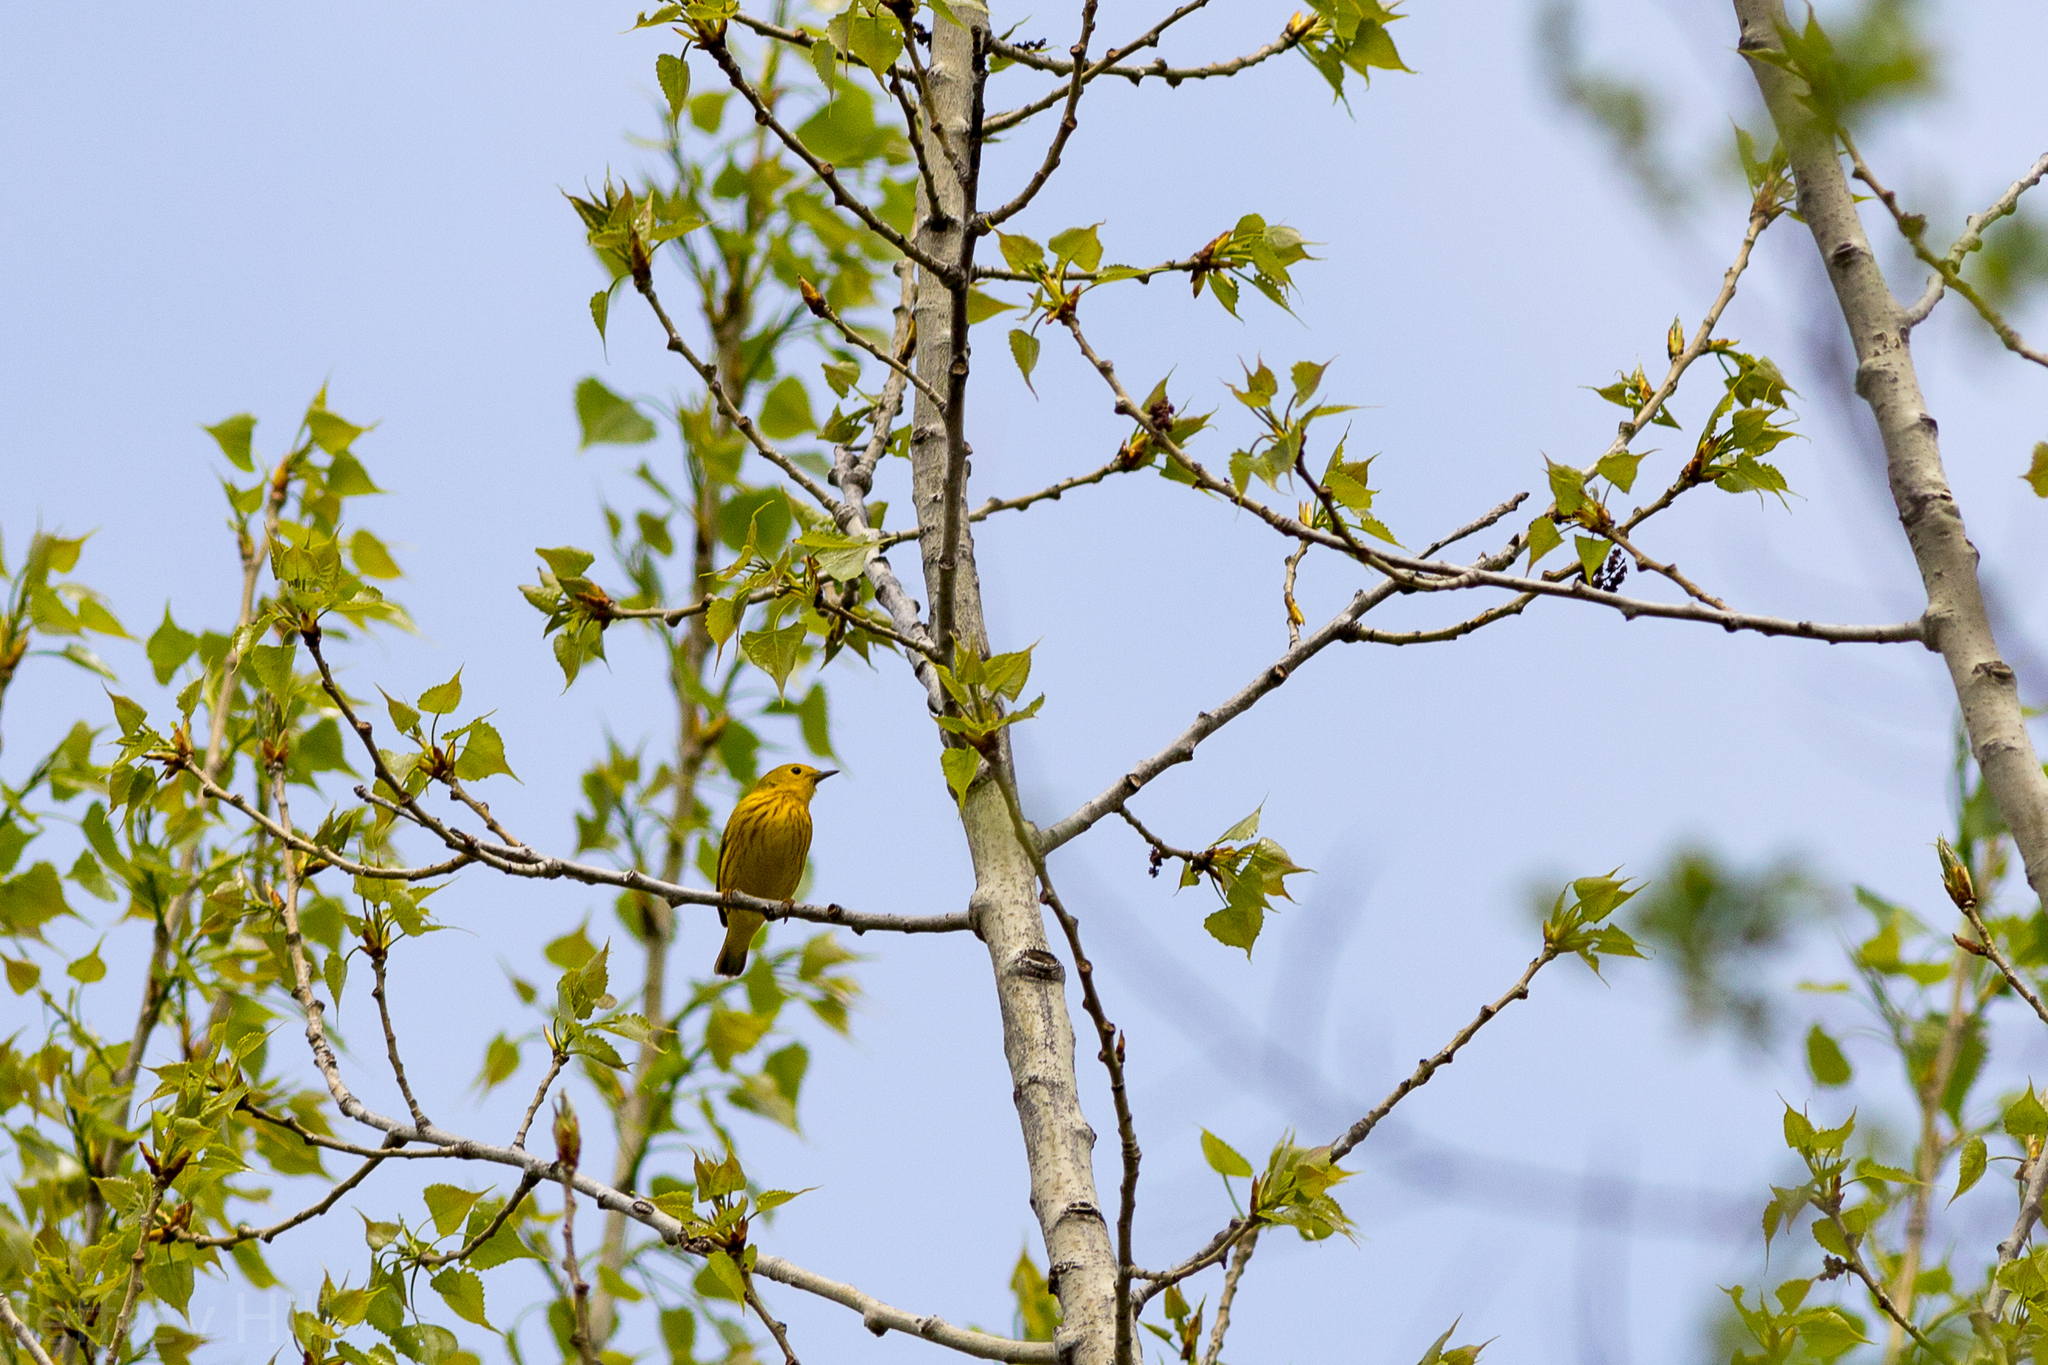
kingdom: Animalia
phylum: Chordata
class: Aves
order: Passeriformes
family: Parulidae
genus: Setophaga
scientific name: Setophaga petechia
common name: Yellow warbler
